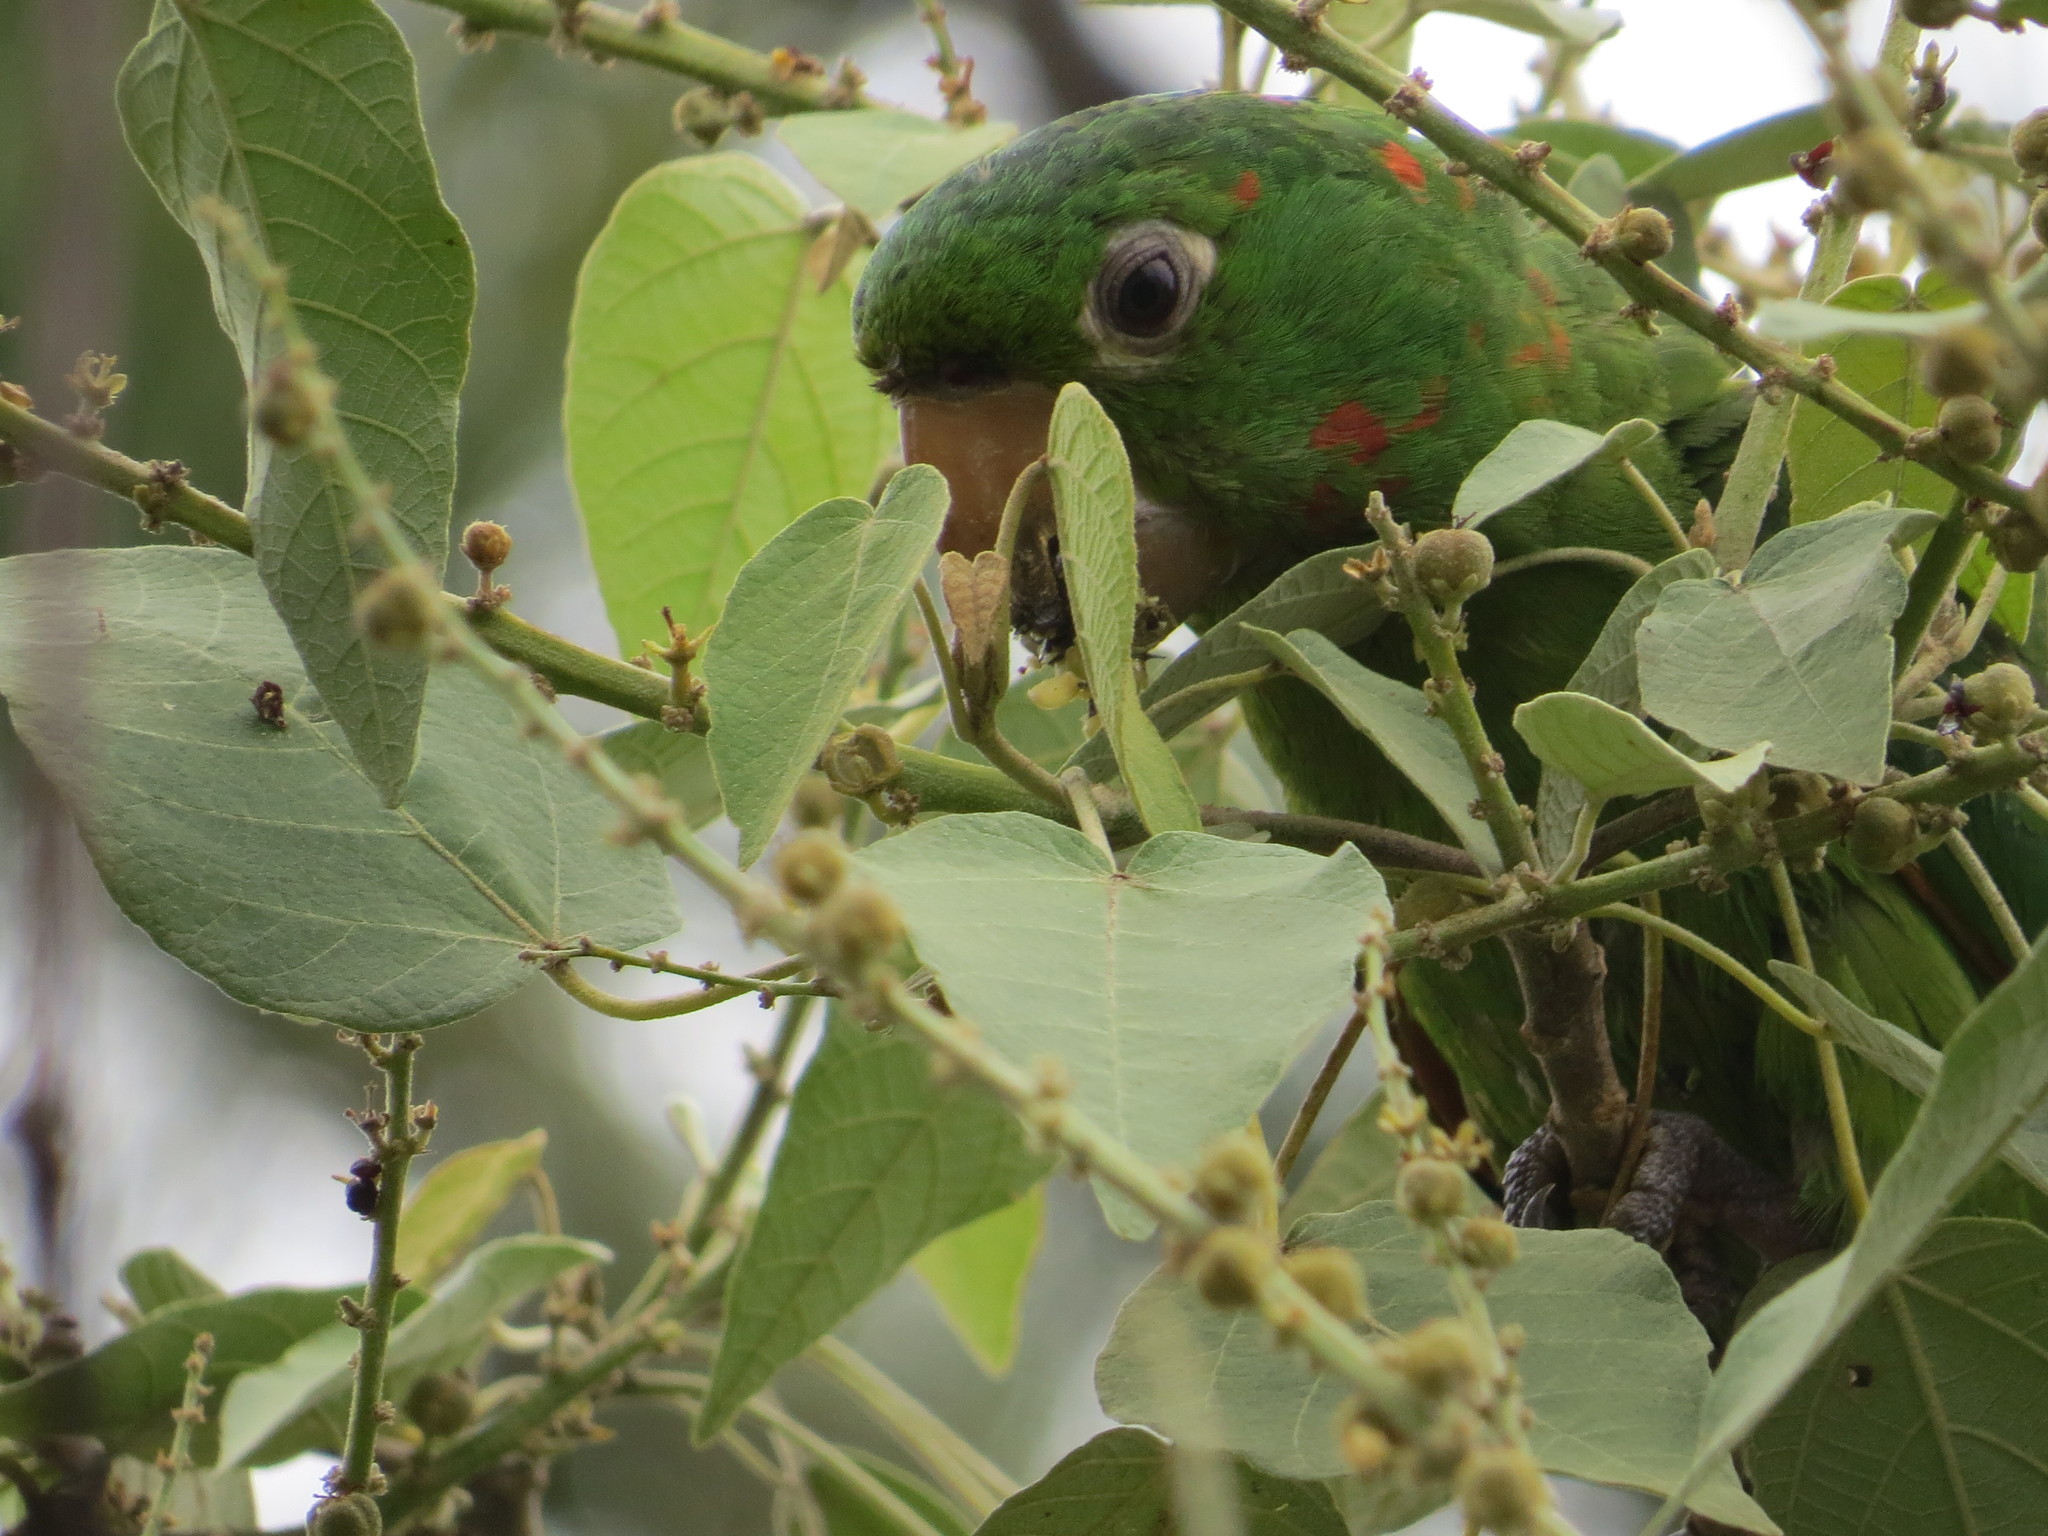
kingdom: Animalia
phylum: Chordata
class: Aves
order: Psittaciformes
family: Psittacidae
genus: Aratinga
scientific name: Aratinga leucophthalma
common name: White-eyed parakeet
